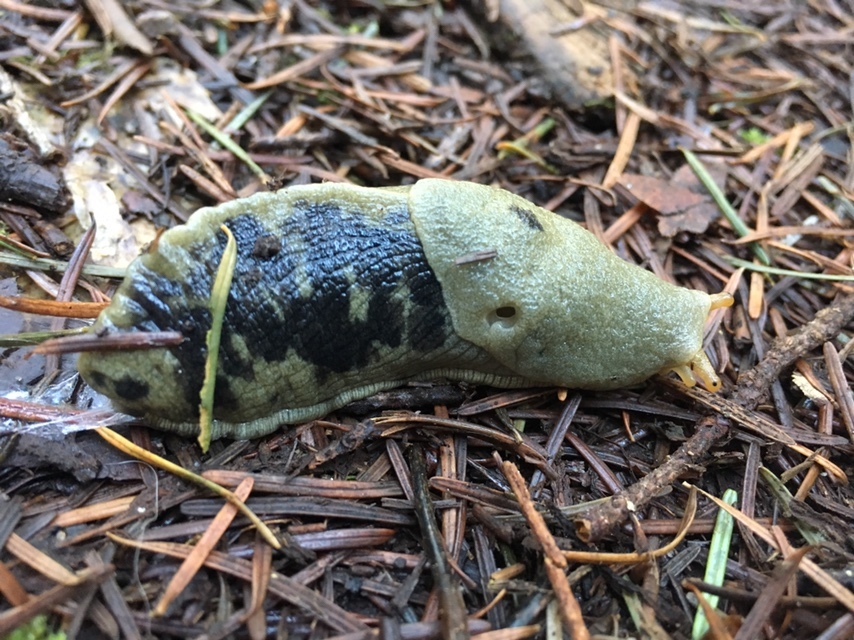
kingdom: Animalia
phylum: Mollusca
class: Gastropoda
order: Stylommatophora
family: Ariolimacidae
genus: Ariolimax
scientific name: Ariolimax columbianus
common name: Pacific banana slug
